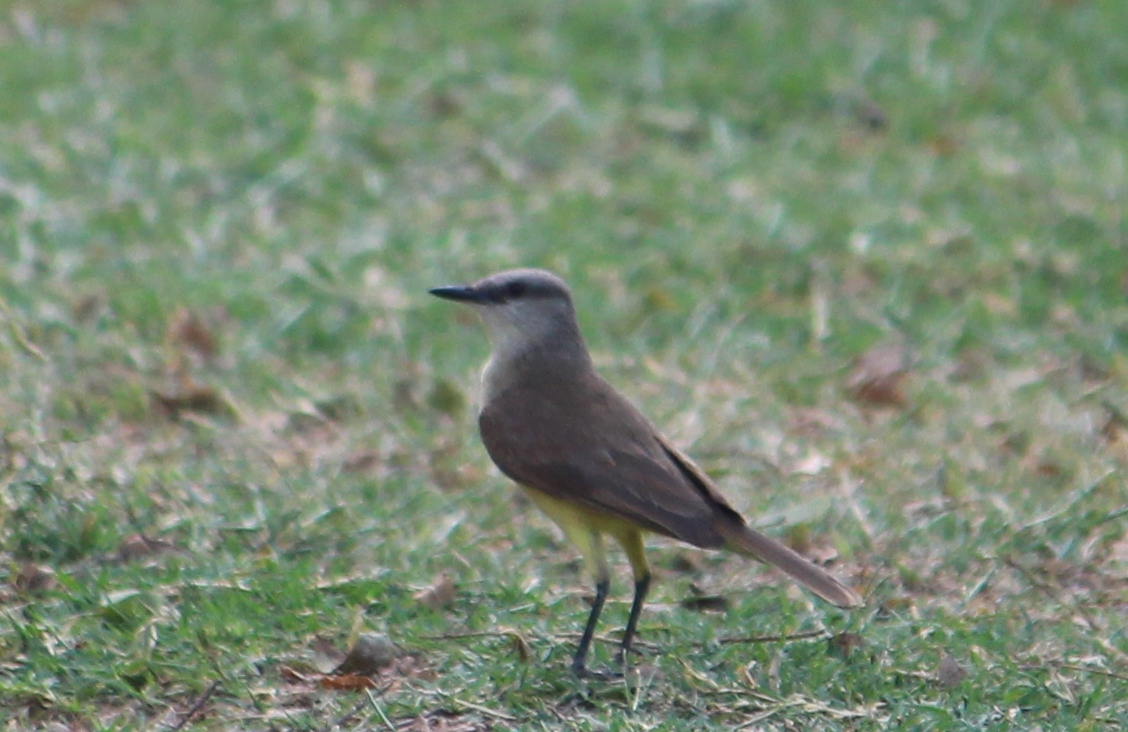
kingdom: Animalia
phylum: Chordata
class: Aves
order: Passeriformes
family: Tyrannidae
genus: Machetornis
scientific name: Machetornis rixosa
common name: Cattle tyrant
